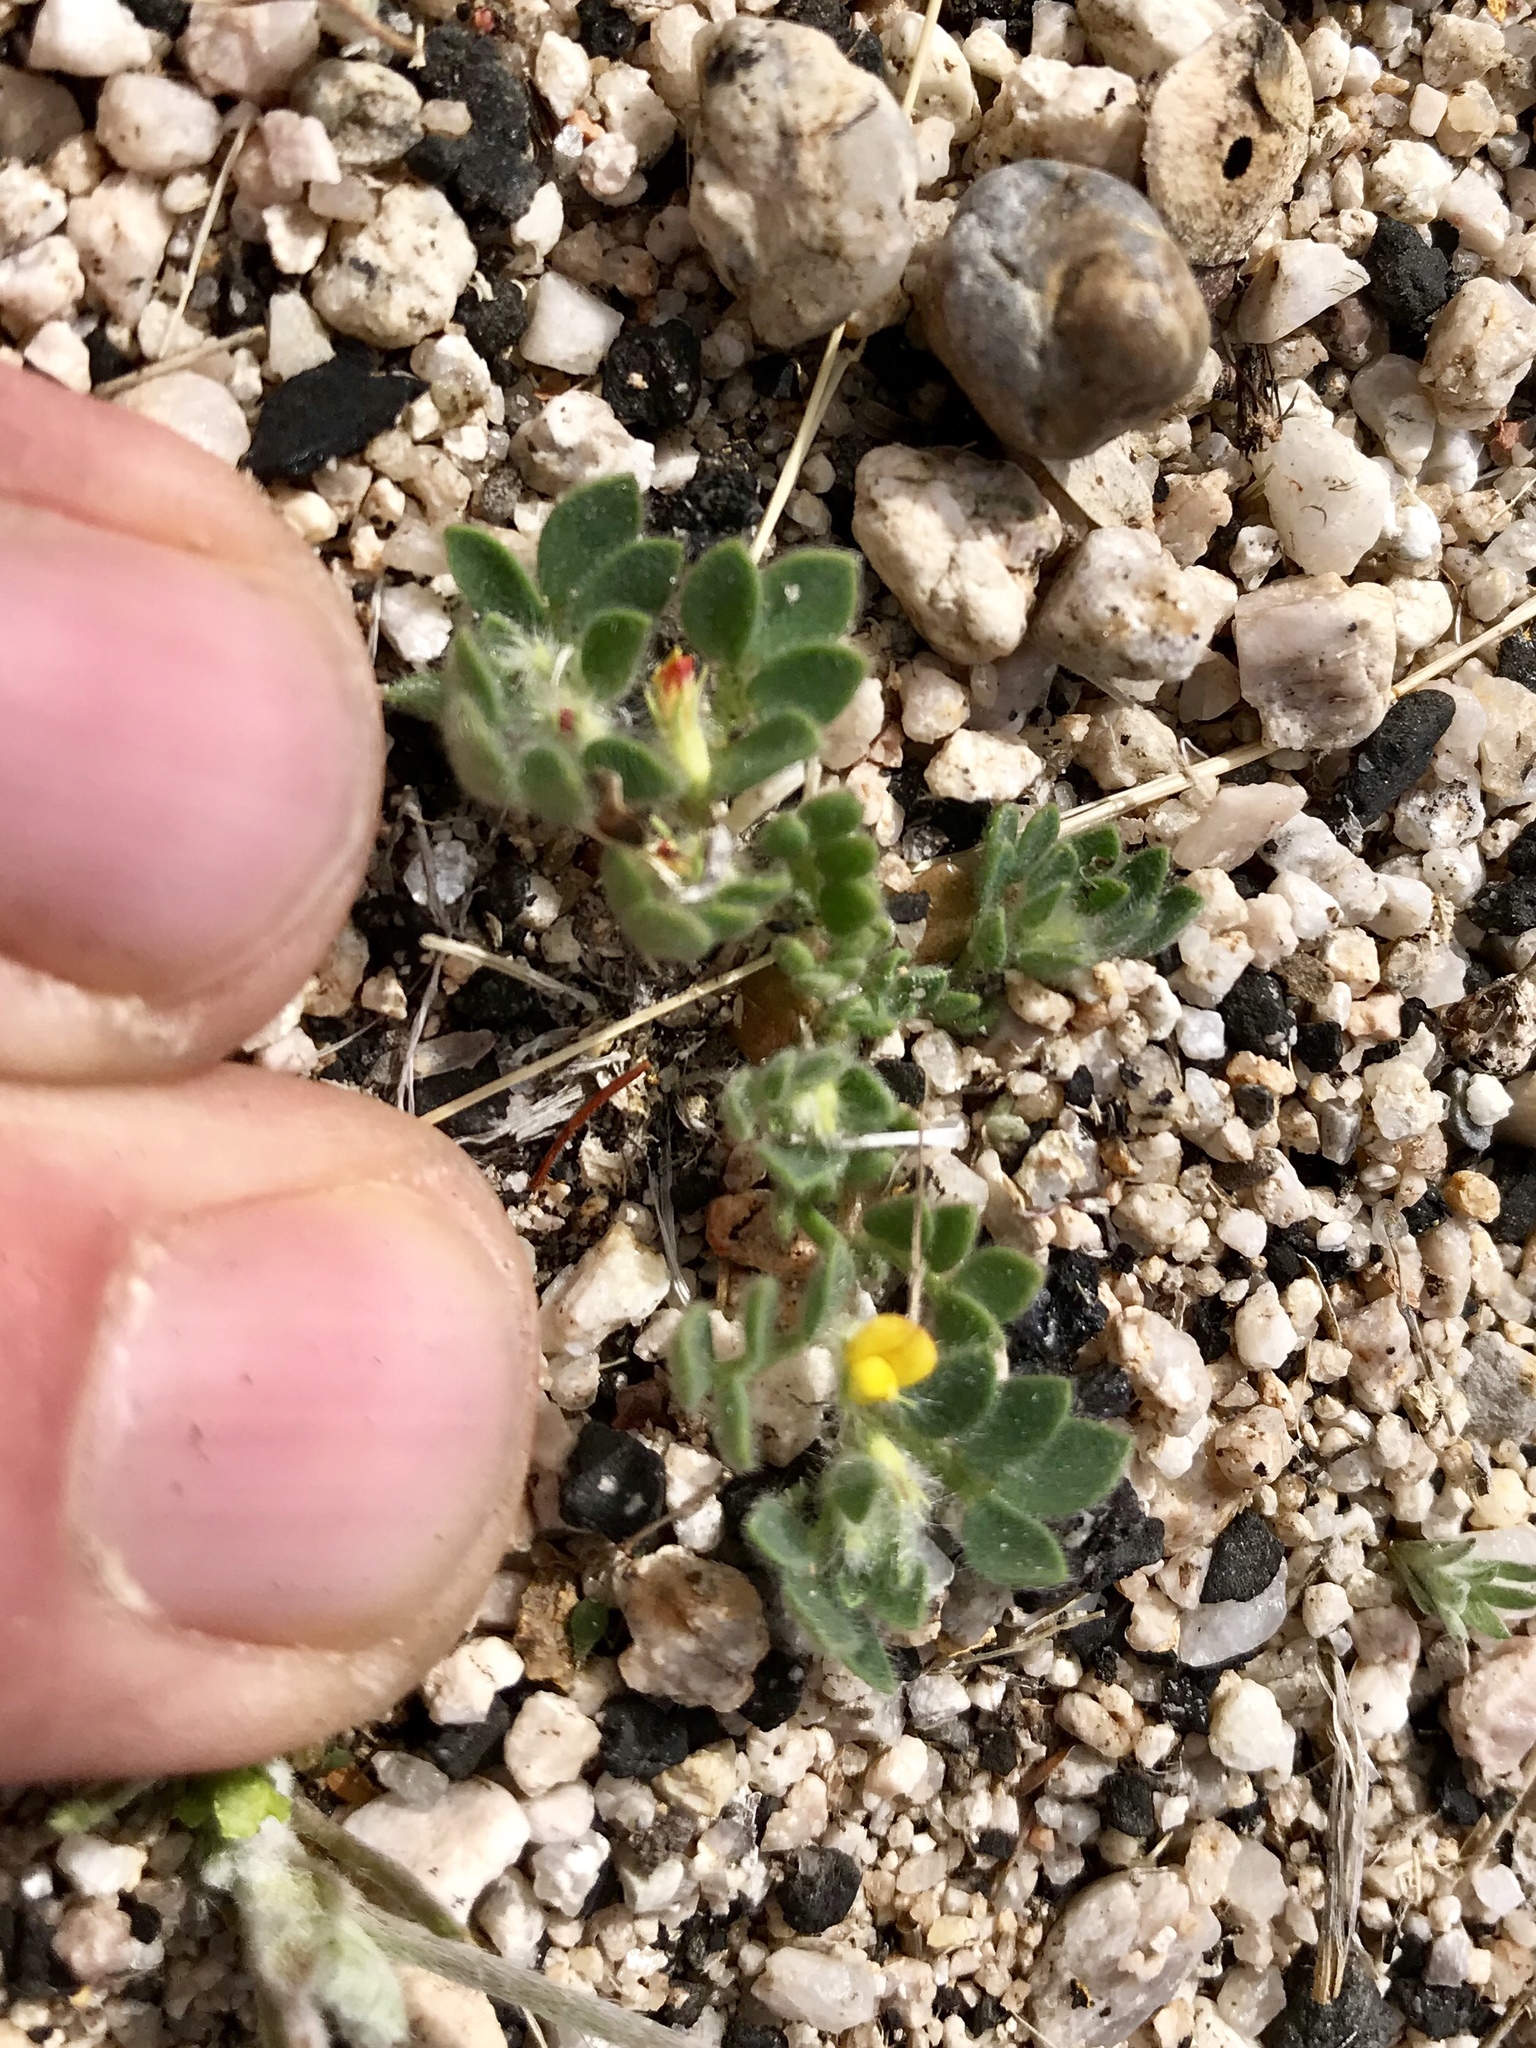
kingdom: Plantae
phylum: Tracheophyta
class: Magnoliopsida
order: Fabales
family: Fabaceae
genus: Acmispon
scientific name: Acmispon brachycarpus
